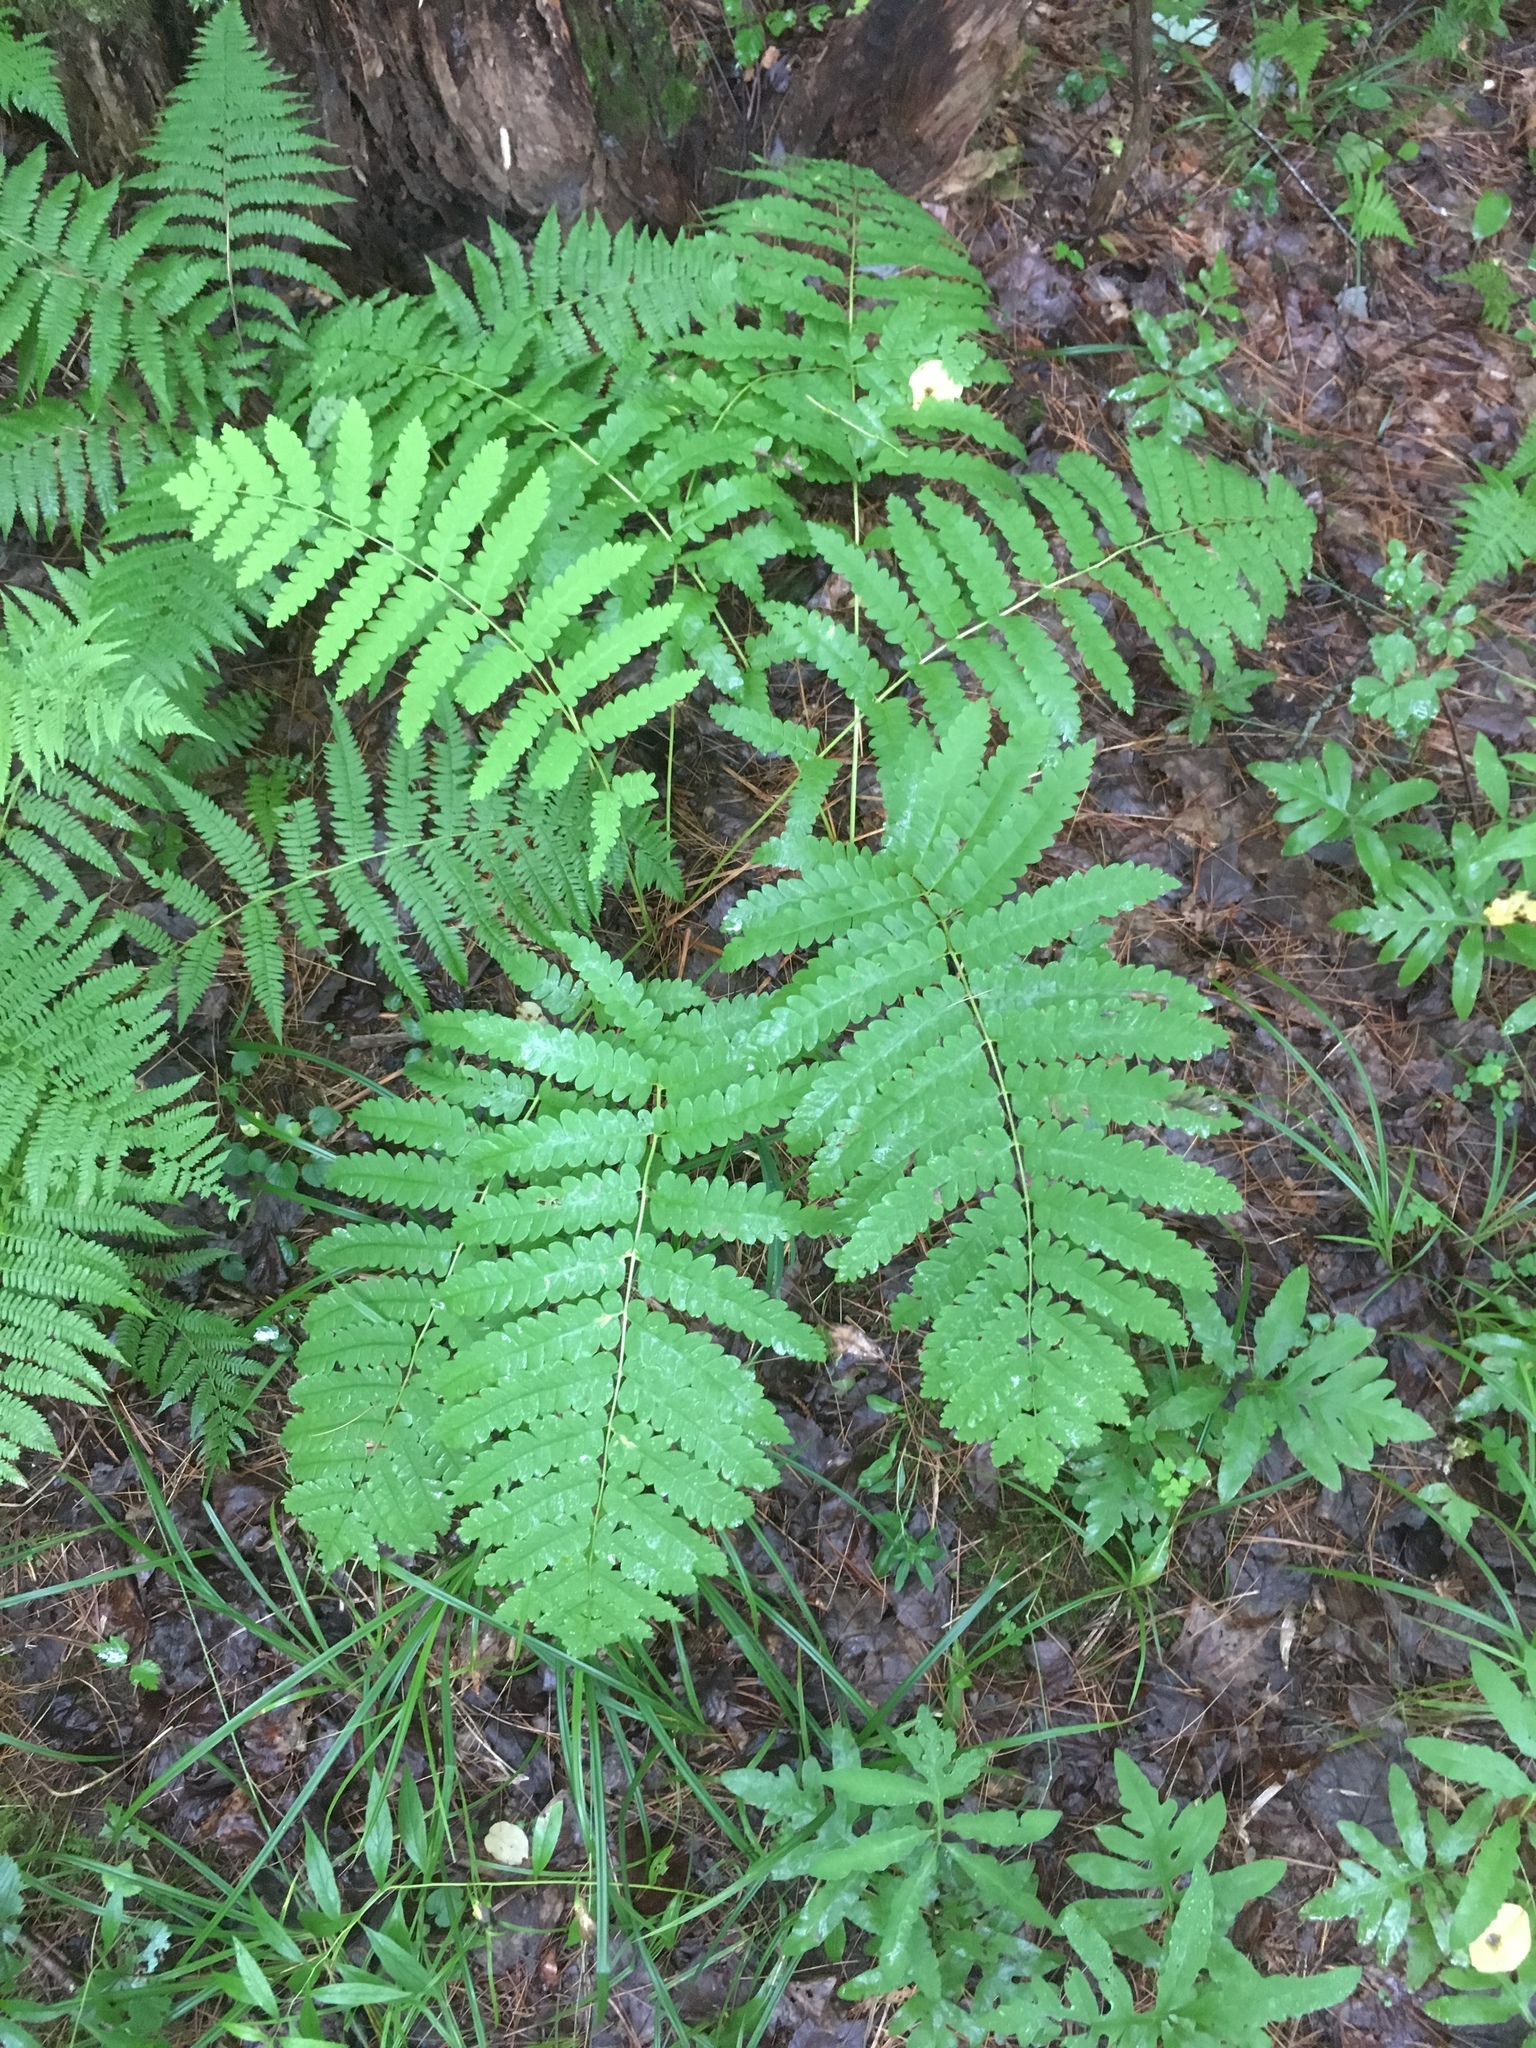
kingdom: Plantae
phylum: Tracheophyta
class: Polypodiopsida
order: Osmundales
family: Osmundaceae
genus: Claytosmunda
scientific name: Claytosmunda claytoniana
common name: Clayton's fern
